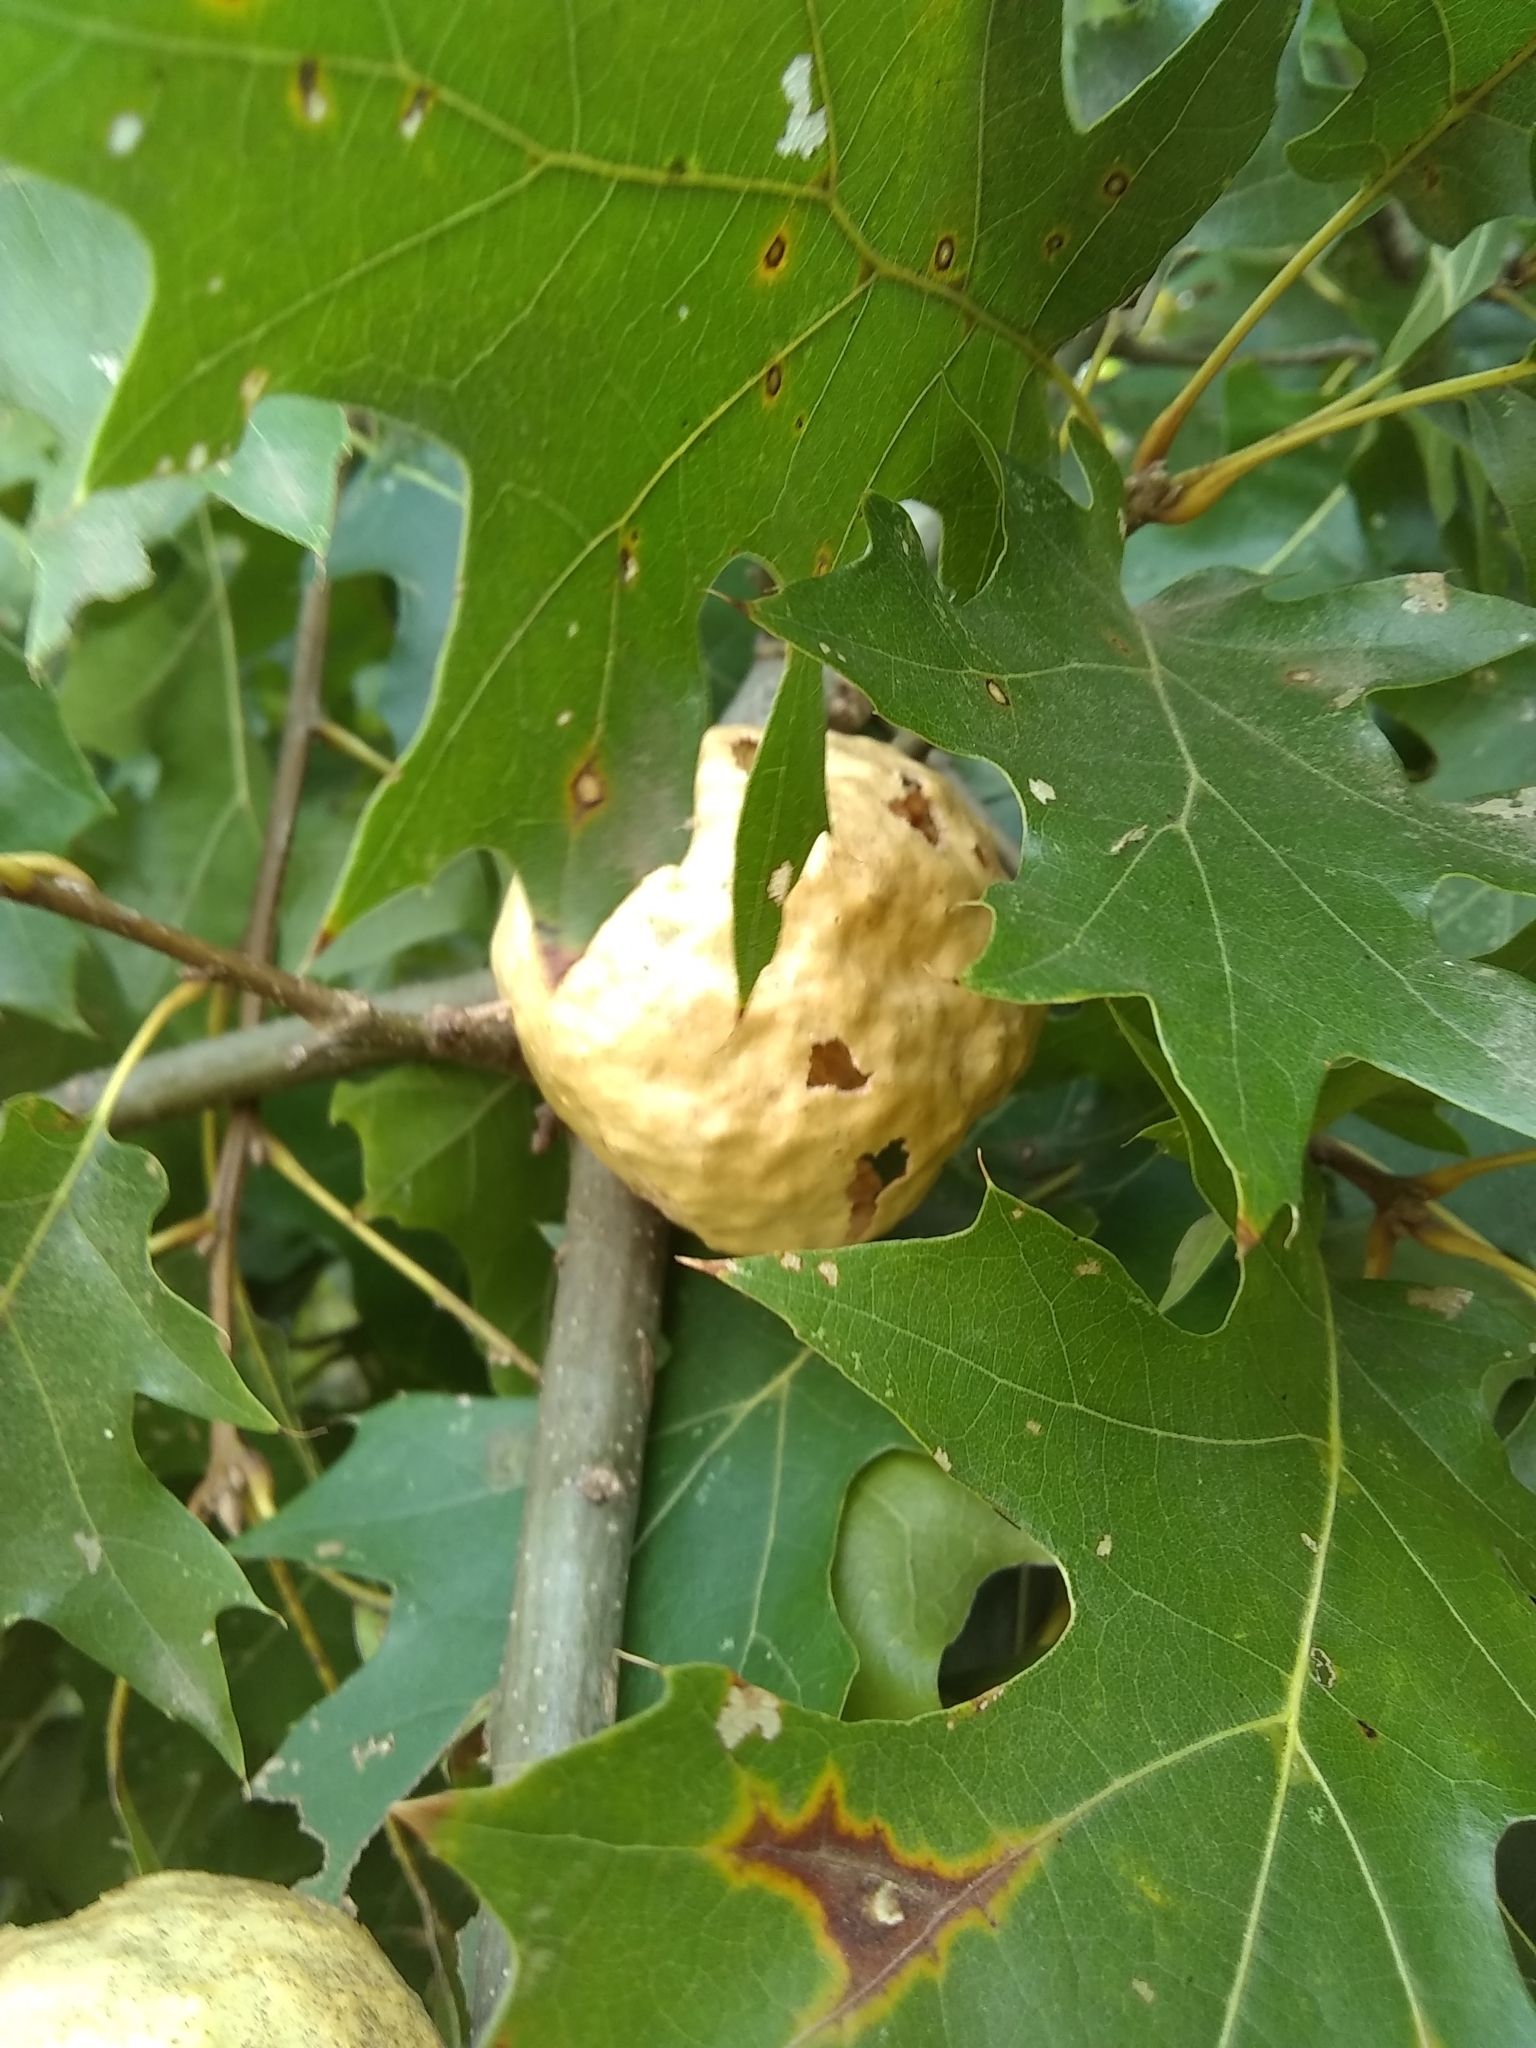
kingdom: Animalia
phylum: Arthropoda
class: Insecta
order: Hymenoptera
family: Cynipidae
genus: Amphibolips
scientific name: Amphibolips
